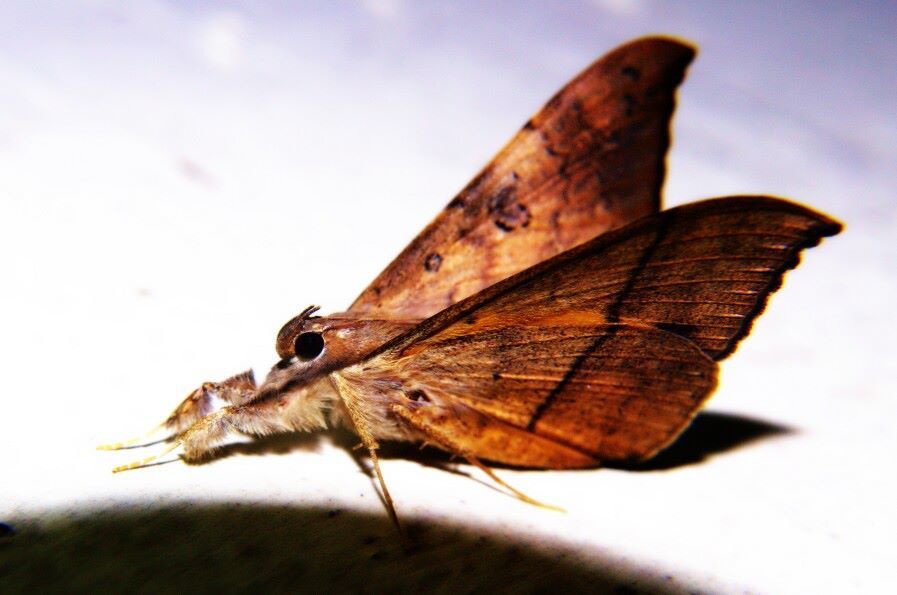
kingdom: Animalia
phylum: Arthropoda
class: Insecta
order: Lepidoptera
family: Erebidae
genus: Oxyodes
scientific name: Oxyodes scrobiculata
